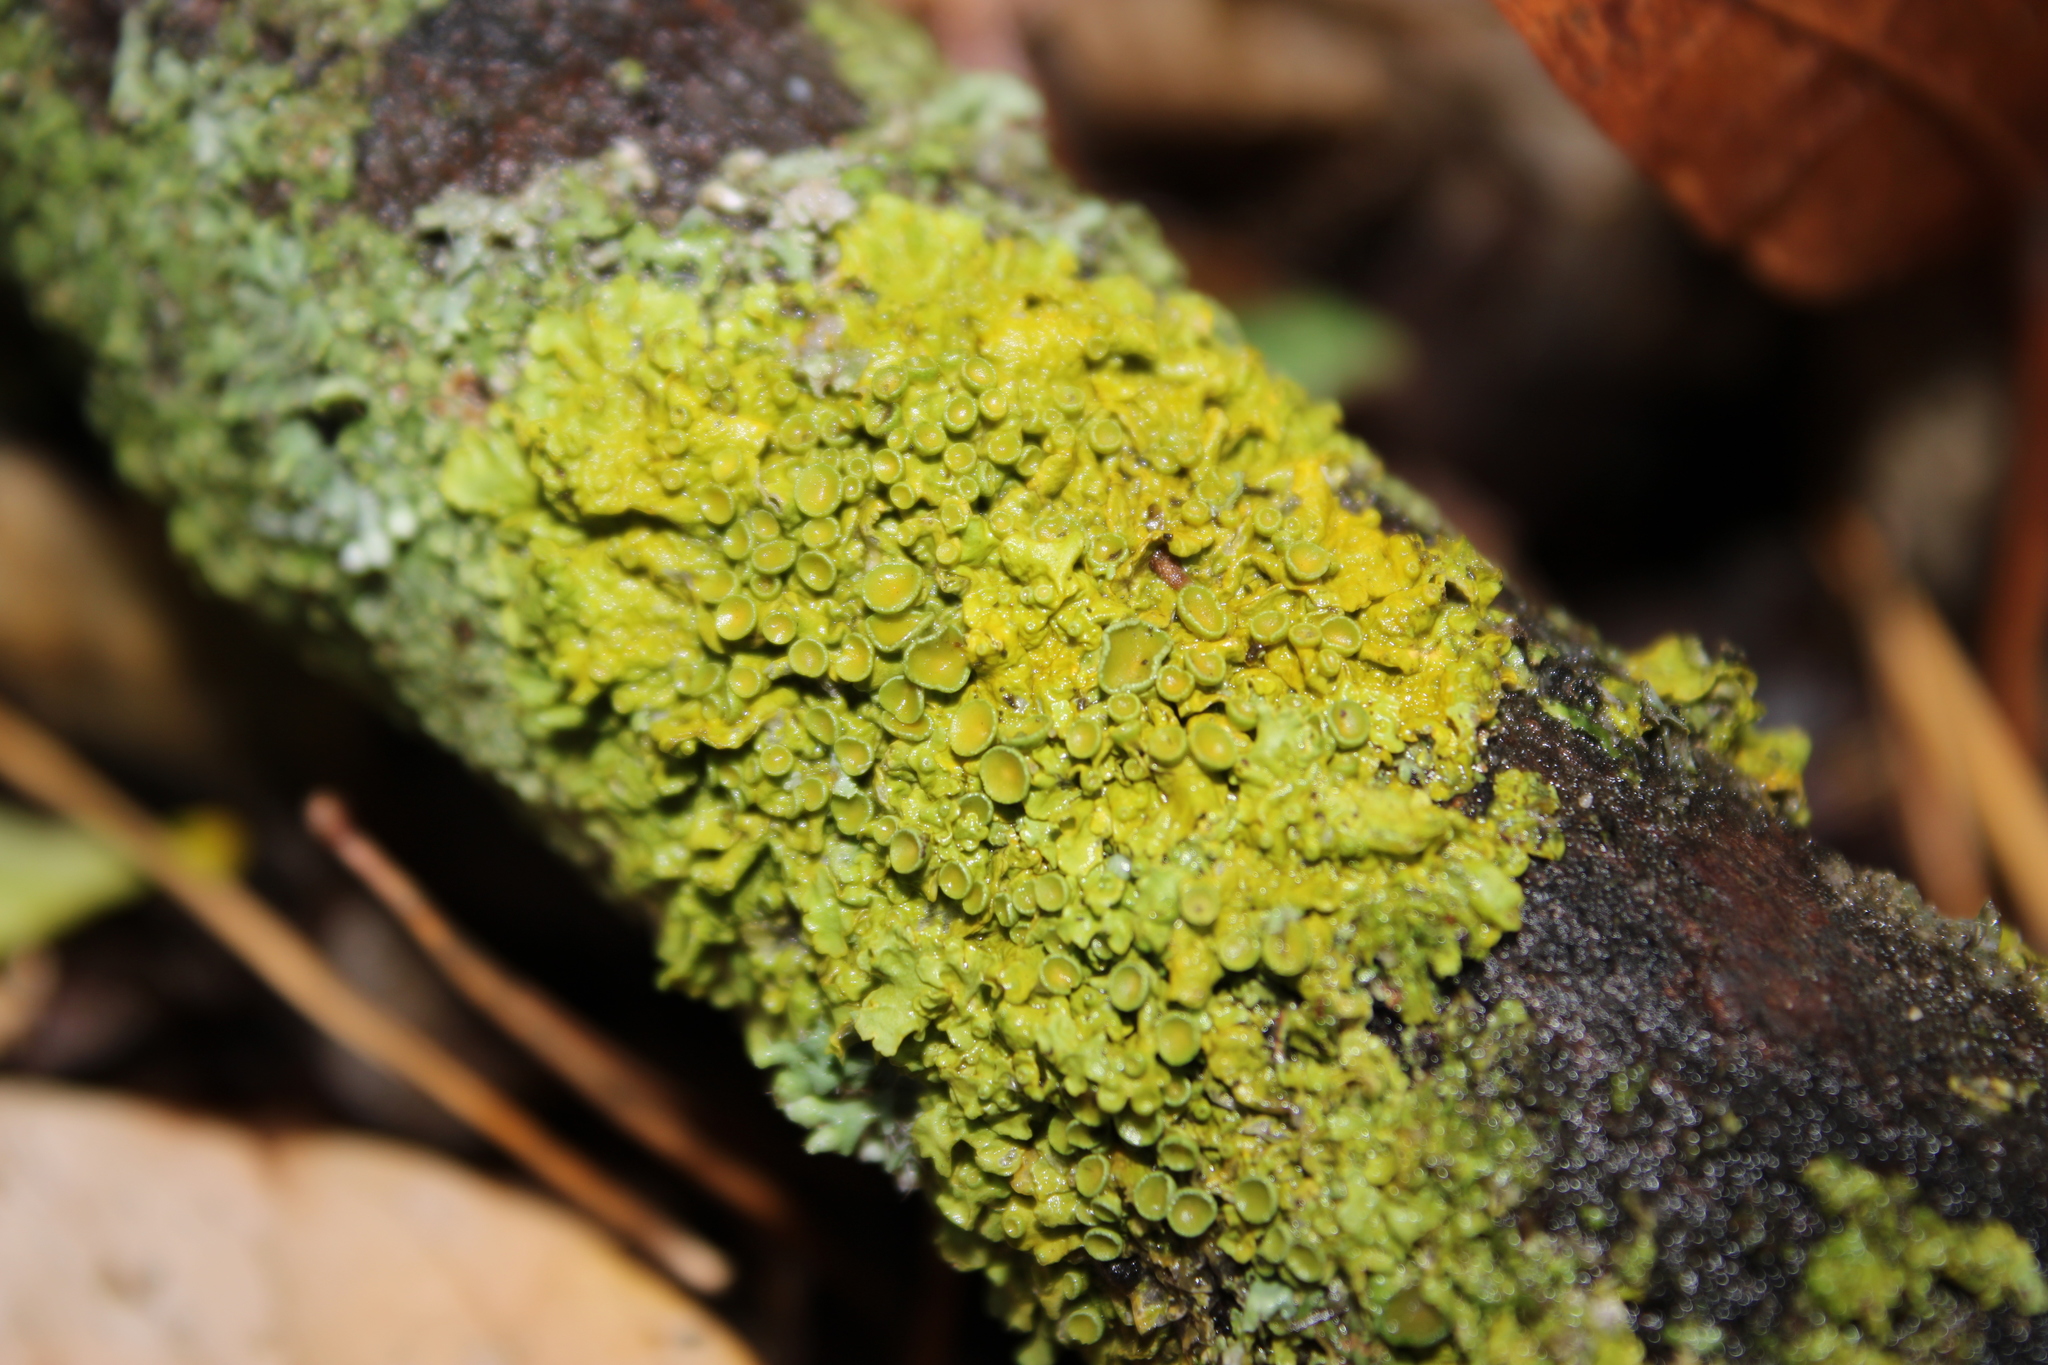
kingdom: Fungi
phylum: Ascomycota
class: Lecanoromycetes
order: Teloschistales
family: Teloschistaceae
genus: Xanthoria
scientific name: Xanthoria parietina
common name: Common orange lichen
